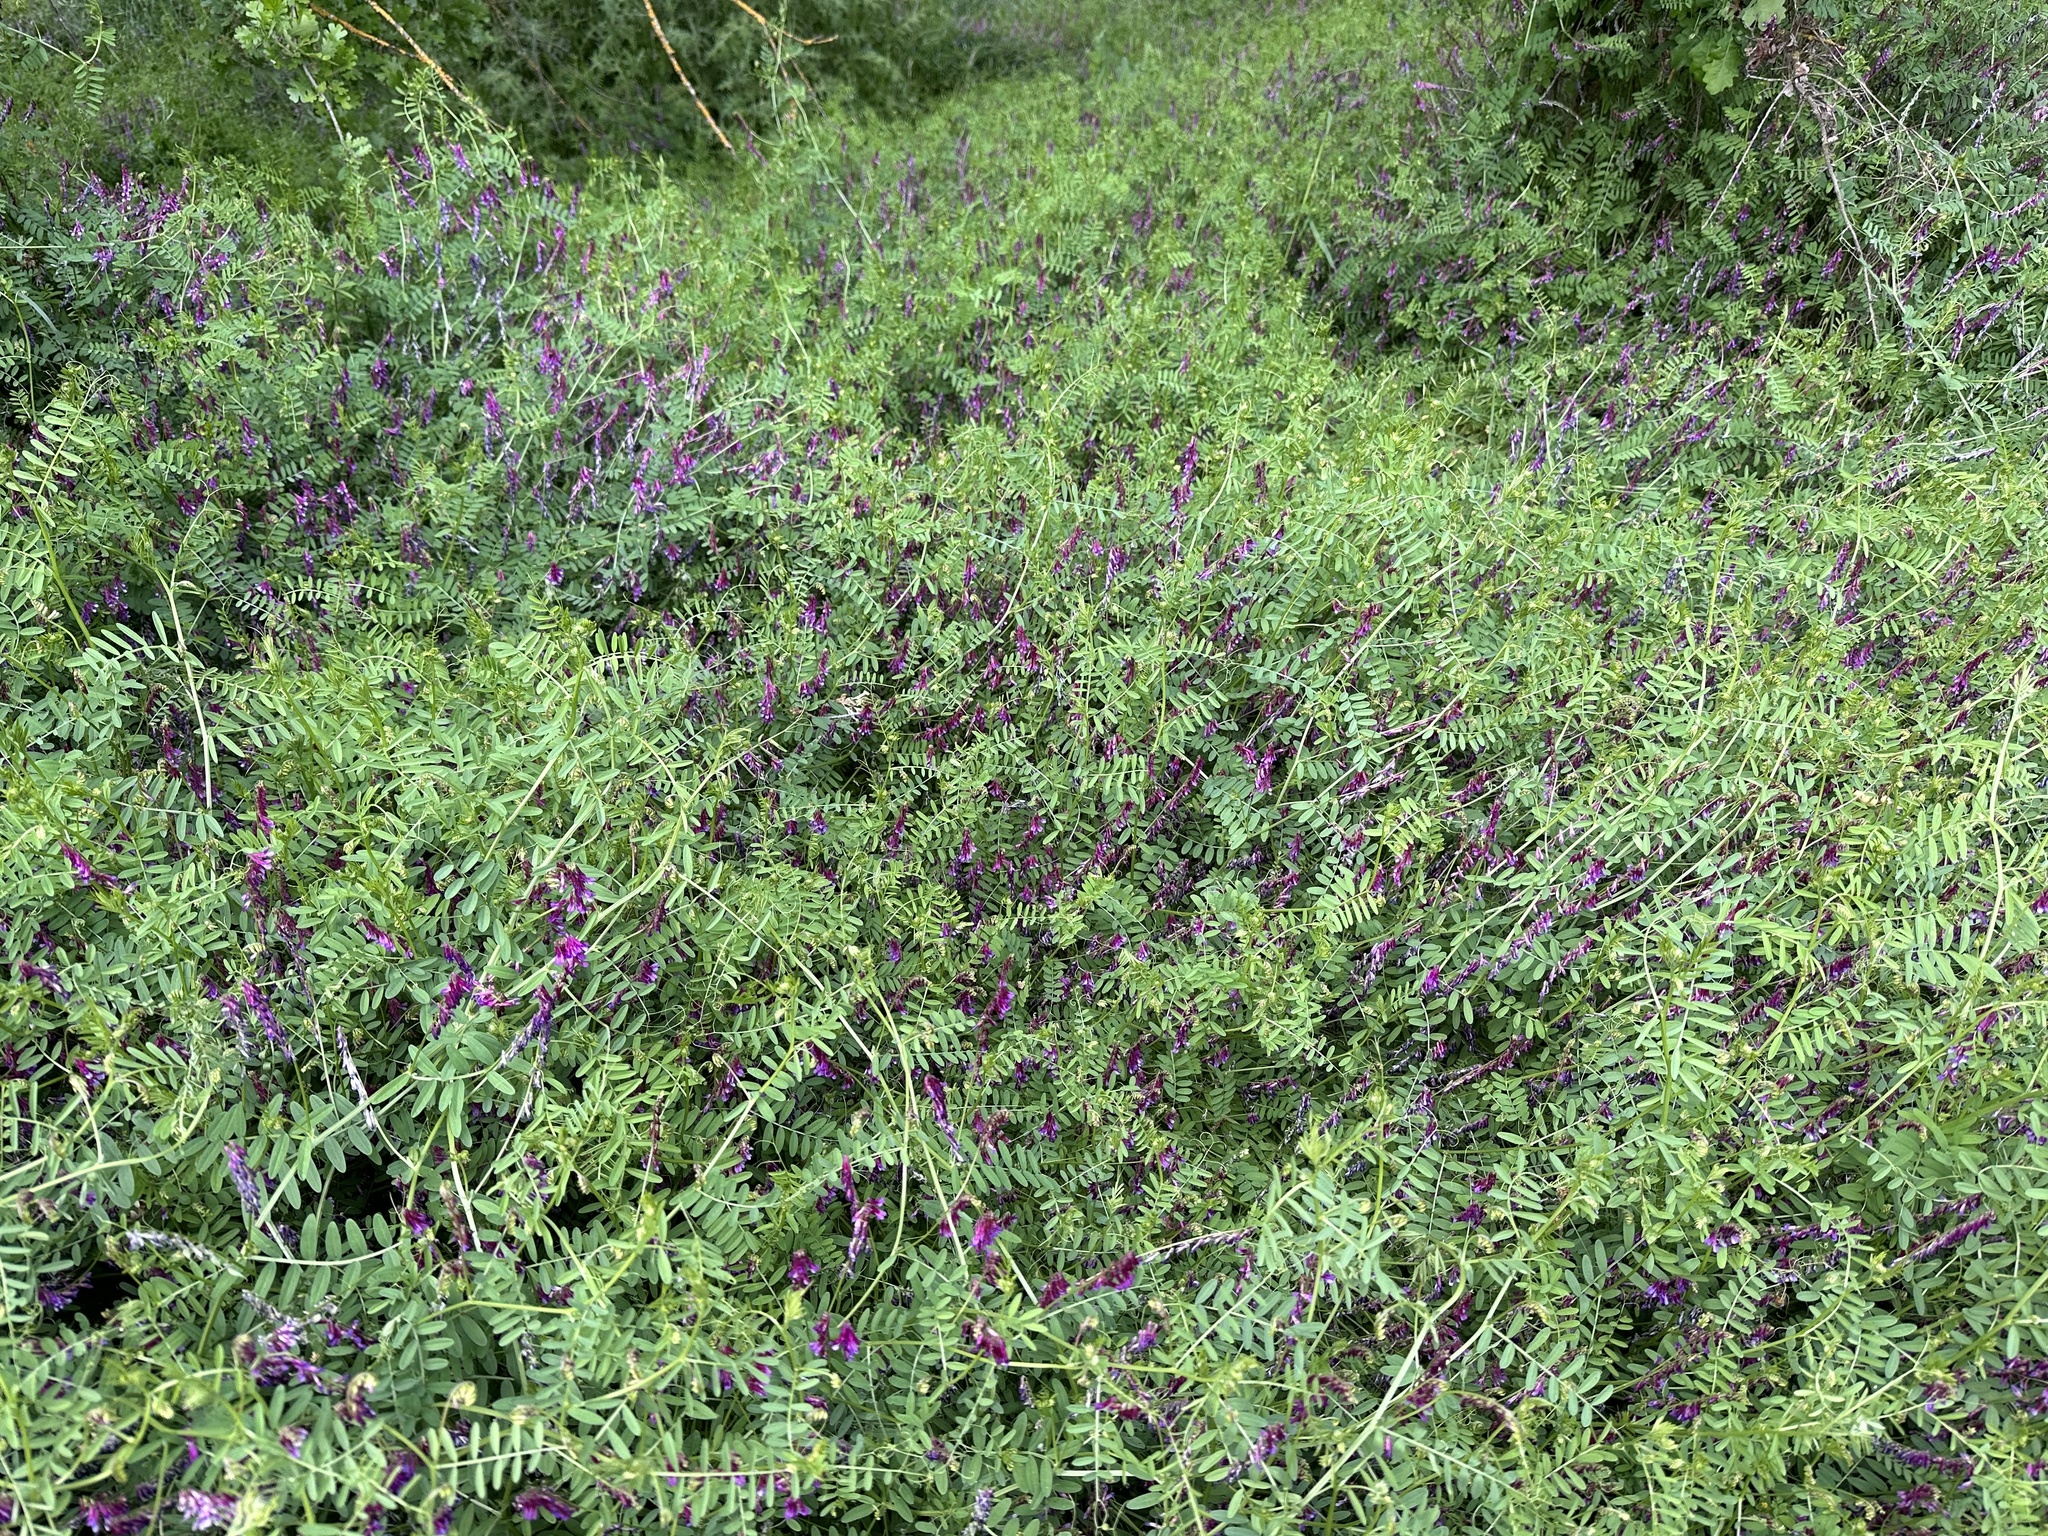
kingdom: Plantae
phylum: Tracheophyta
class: Magnoliopsida
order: Fabales
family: Fabaceae
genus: Vicia
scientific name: Vicia villosa
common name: Fodder vetch
